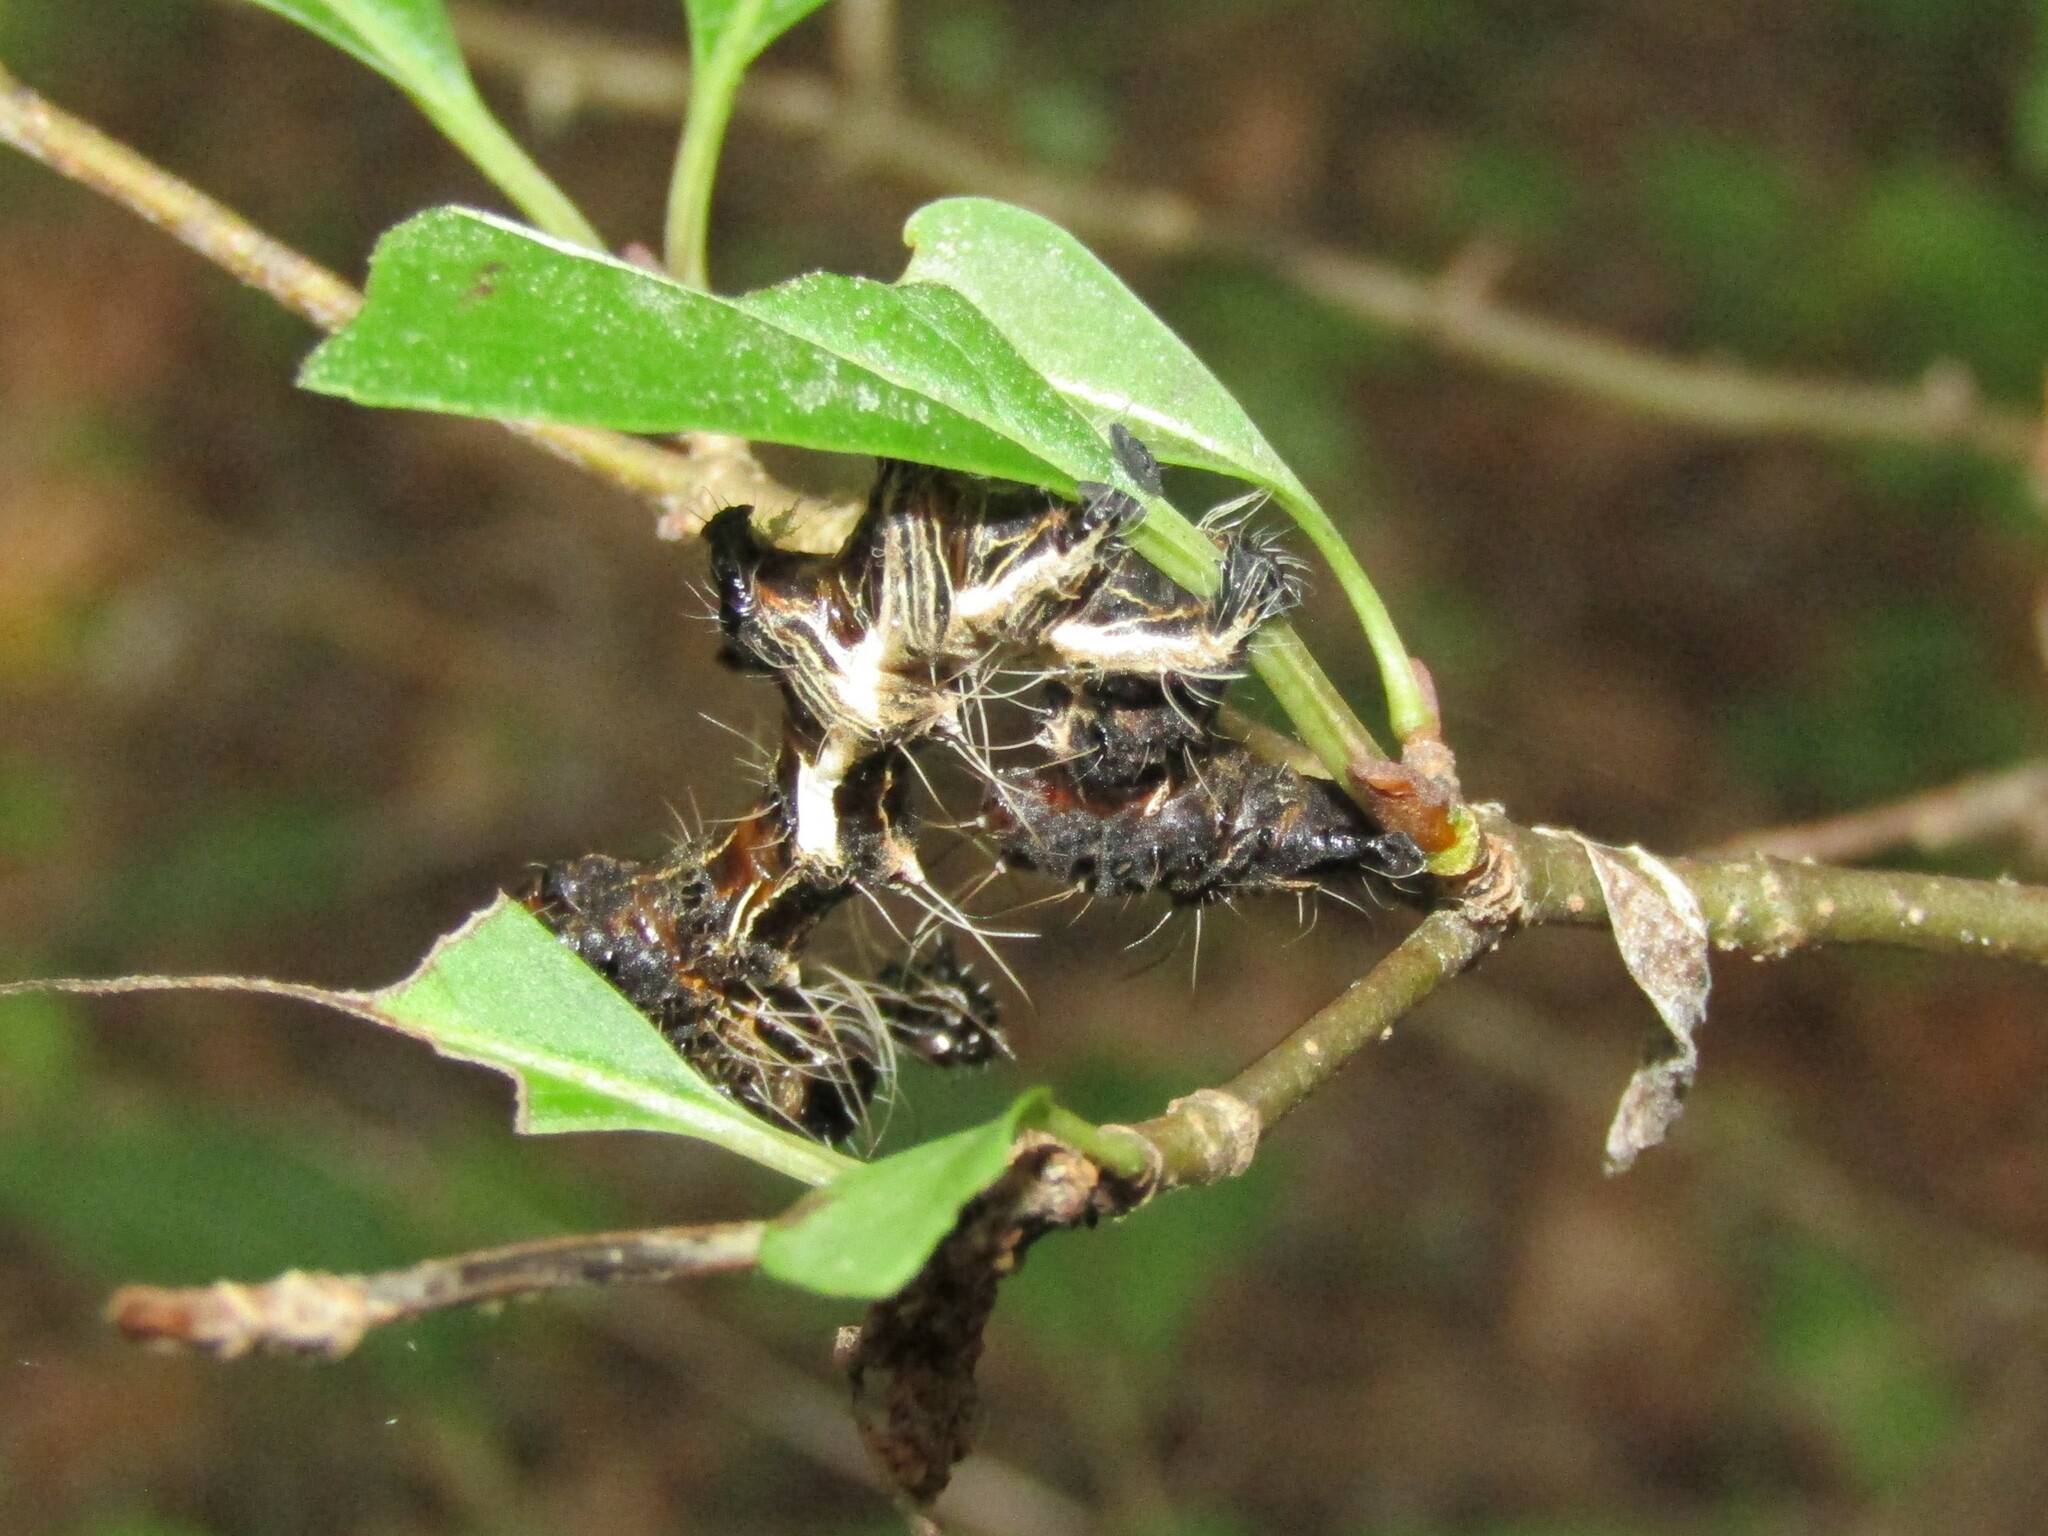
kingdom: Animalia
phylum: Arthropoda
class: Insecta
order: Lepidoptera
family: Noctuidae
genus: Harrisimemna
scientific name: Harrisimemna trisignata
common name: Harris threespot
